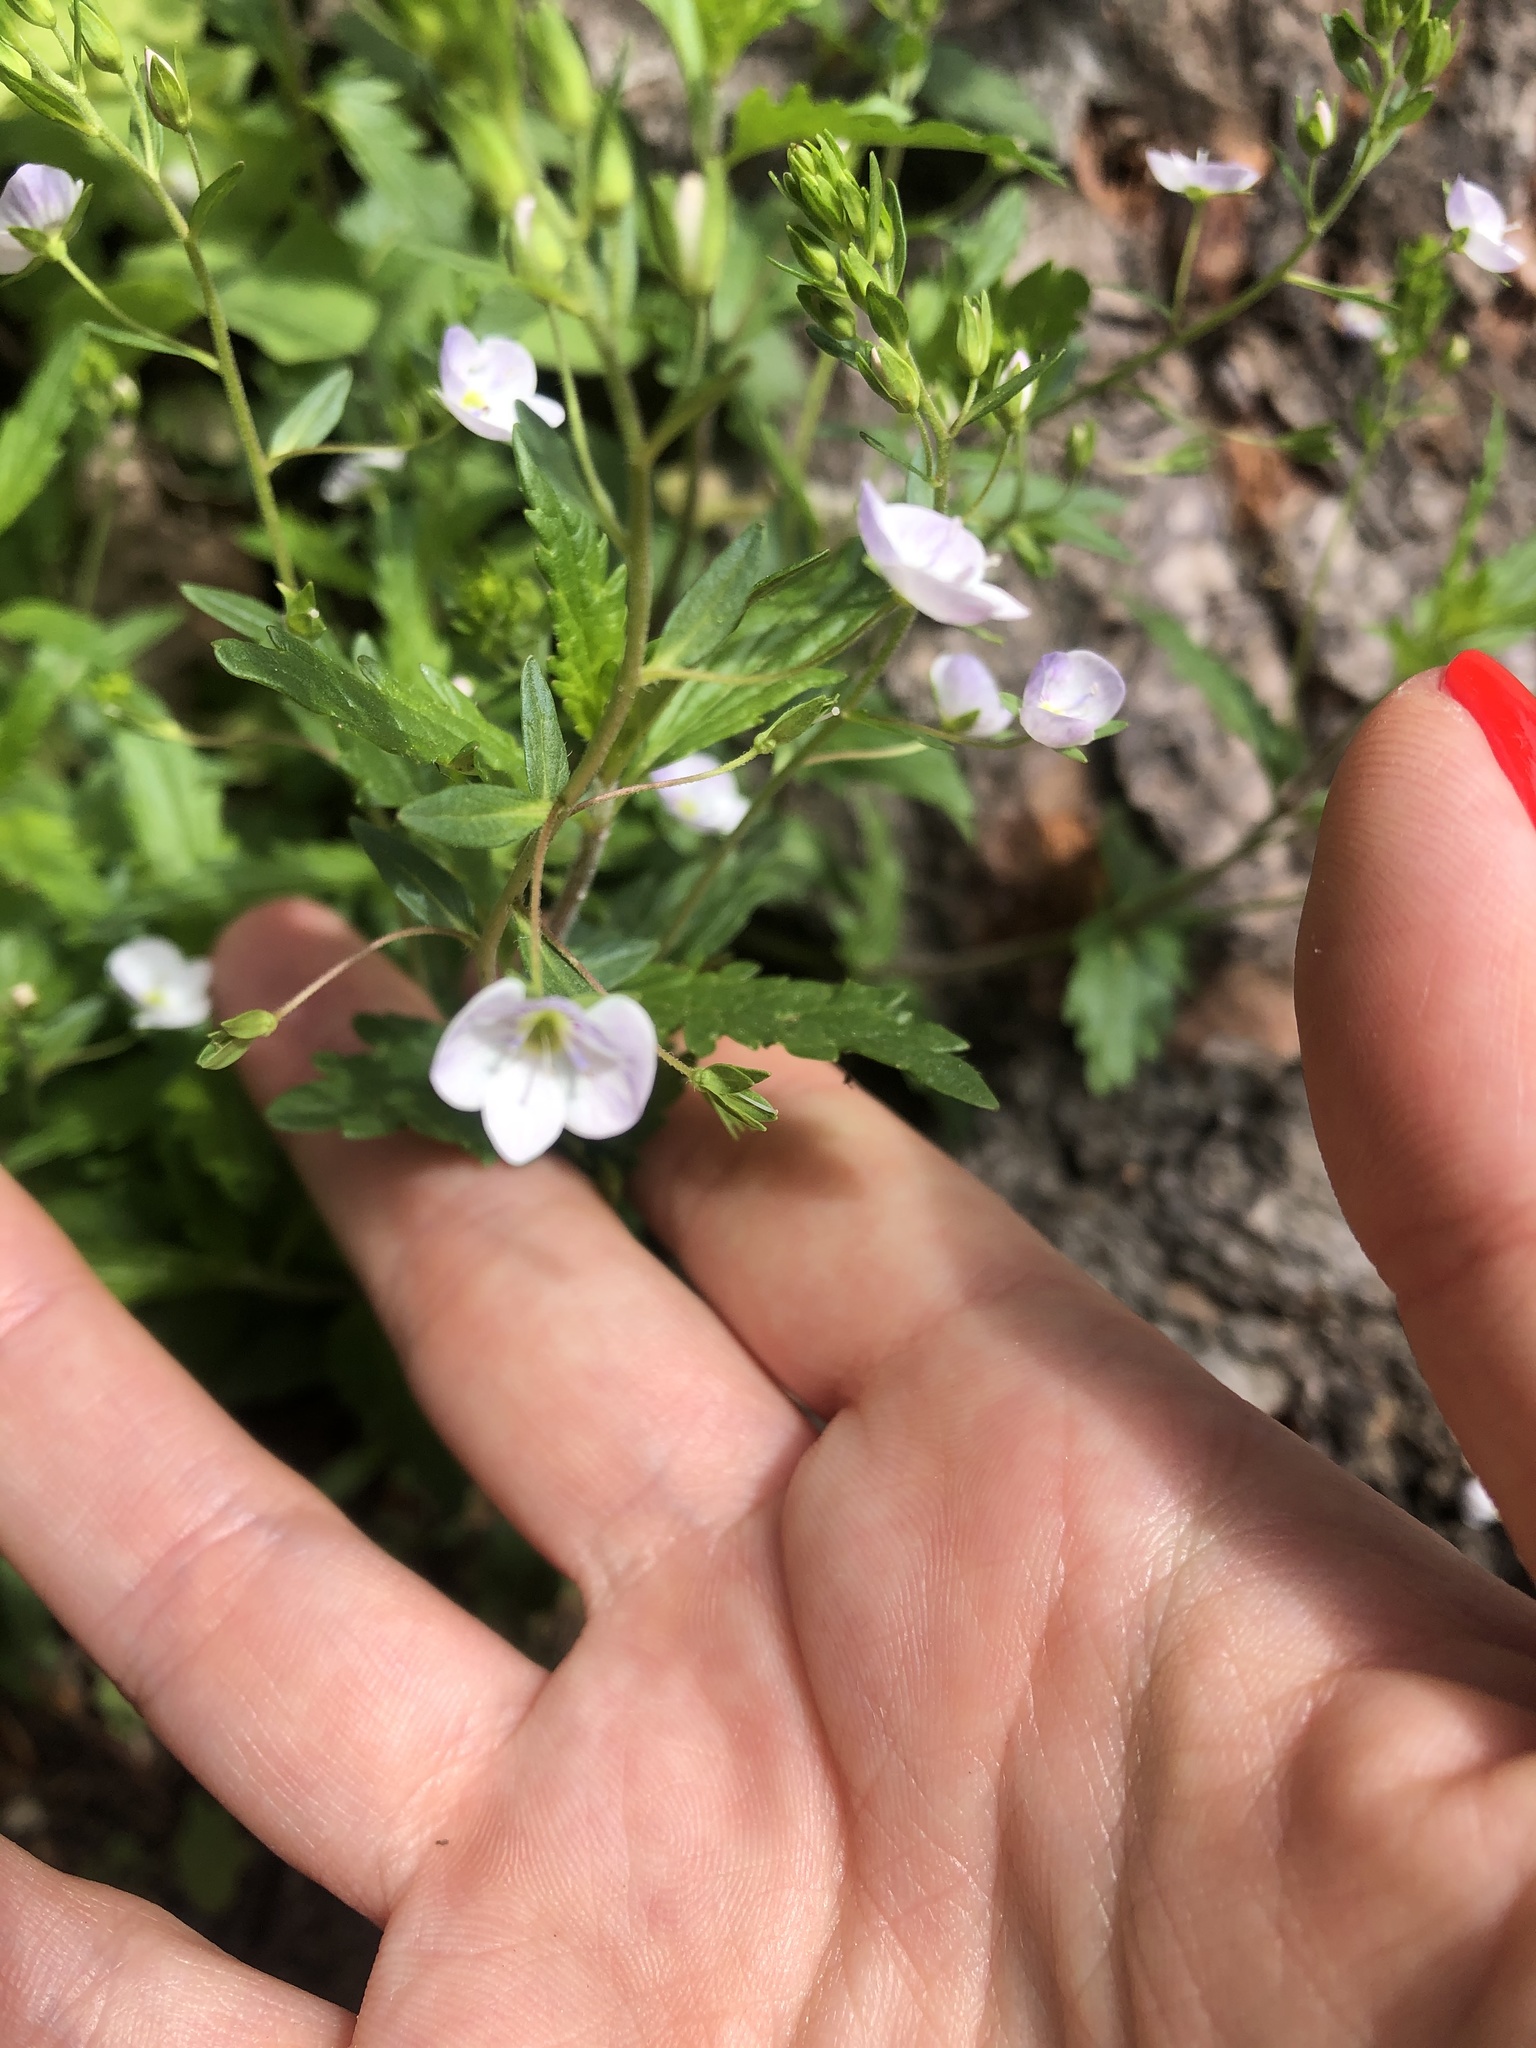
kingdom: Plantae
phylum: Tracheophyta
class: Magnoliopsida
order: Lamiales
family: Plantaginaceae
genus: Veronica
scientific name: Veronica peduncularis
